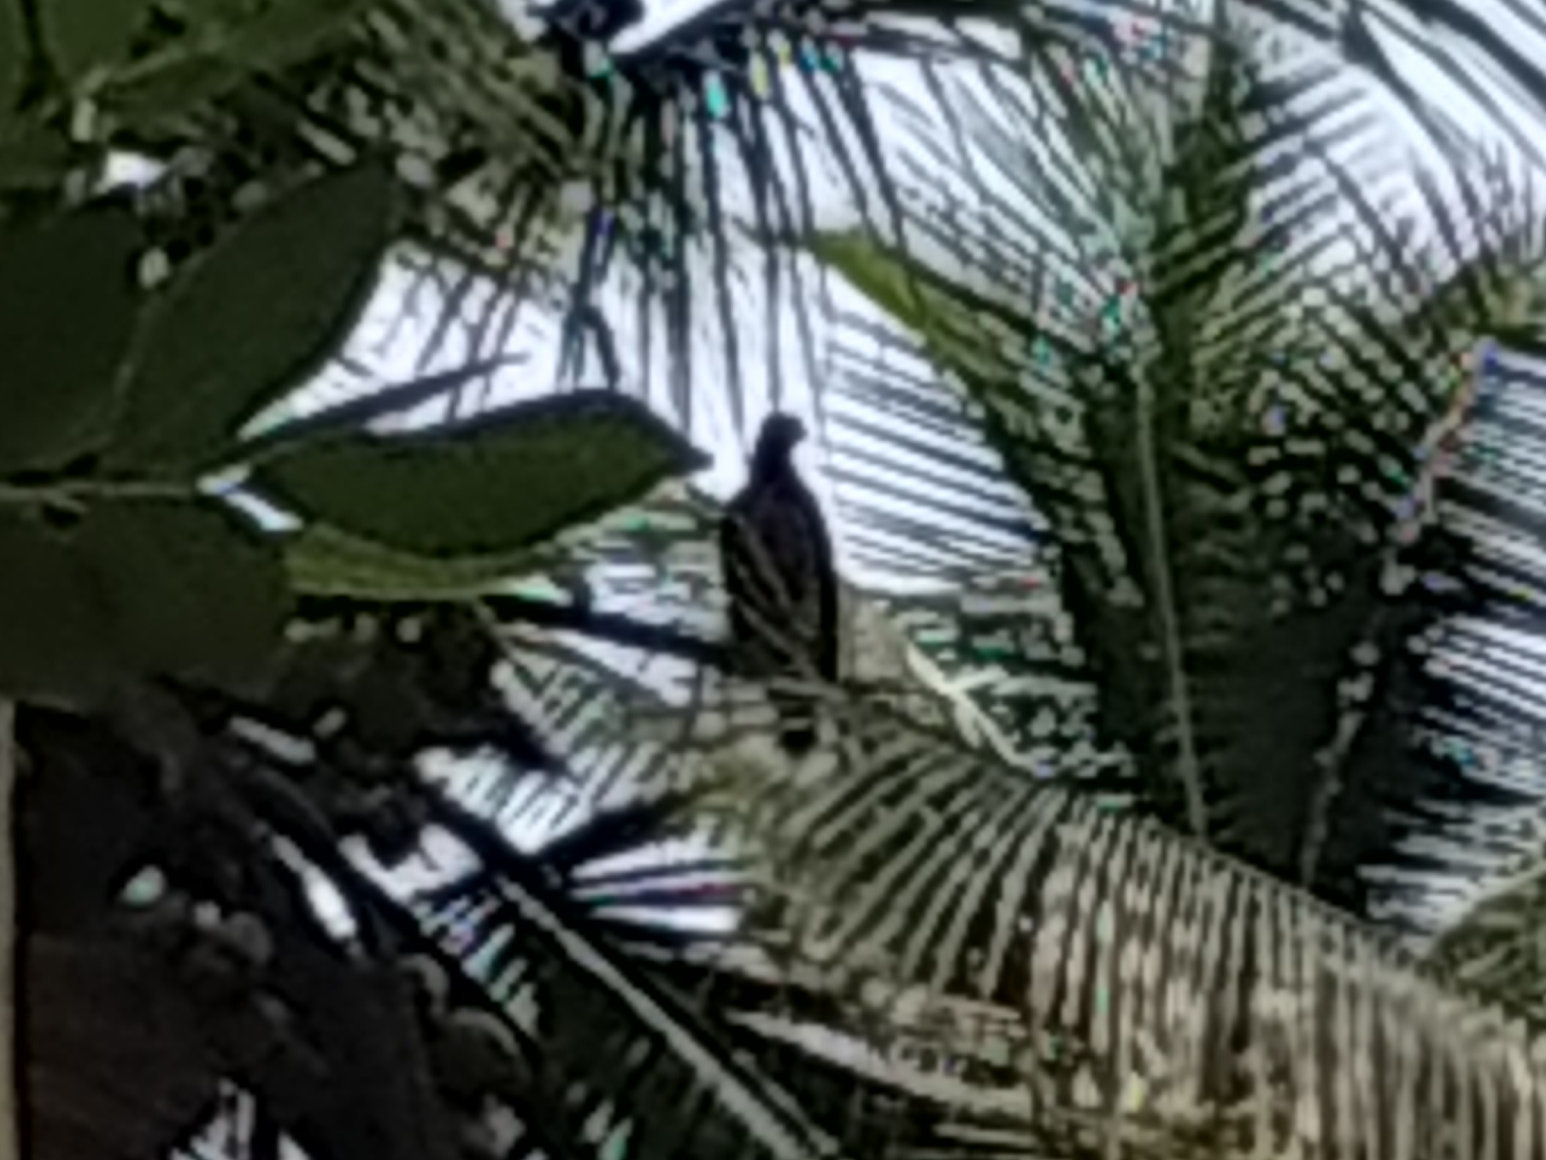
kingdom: Animalia
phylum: Chordata
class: Aves
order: Accipitriformes
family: Accipitridae
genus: Spilornis
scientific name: Spilornis cheela
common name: Crested serpent eagle
